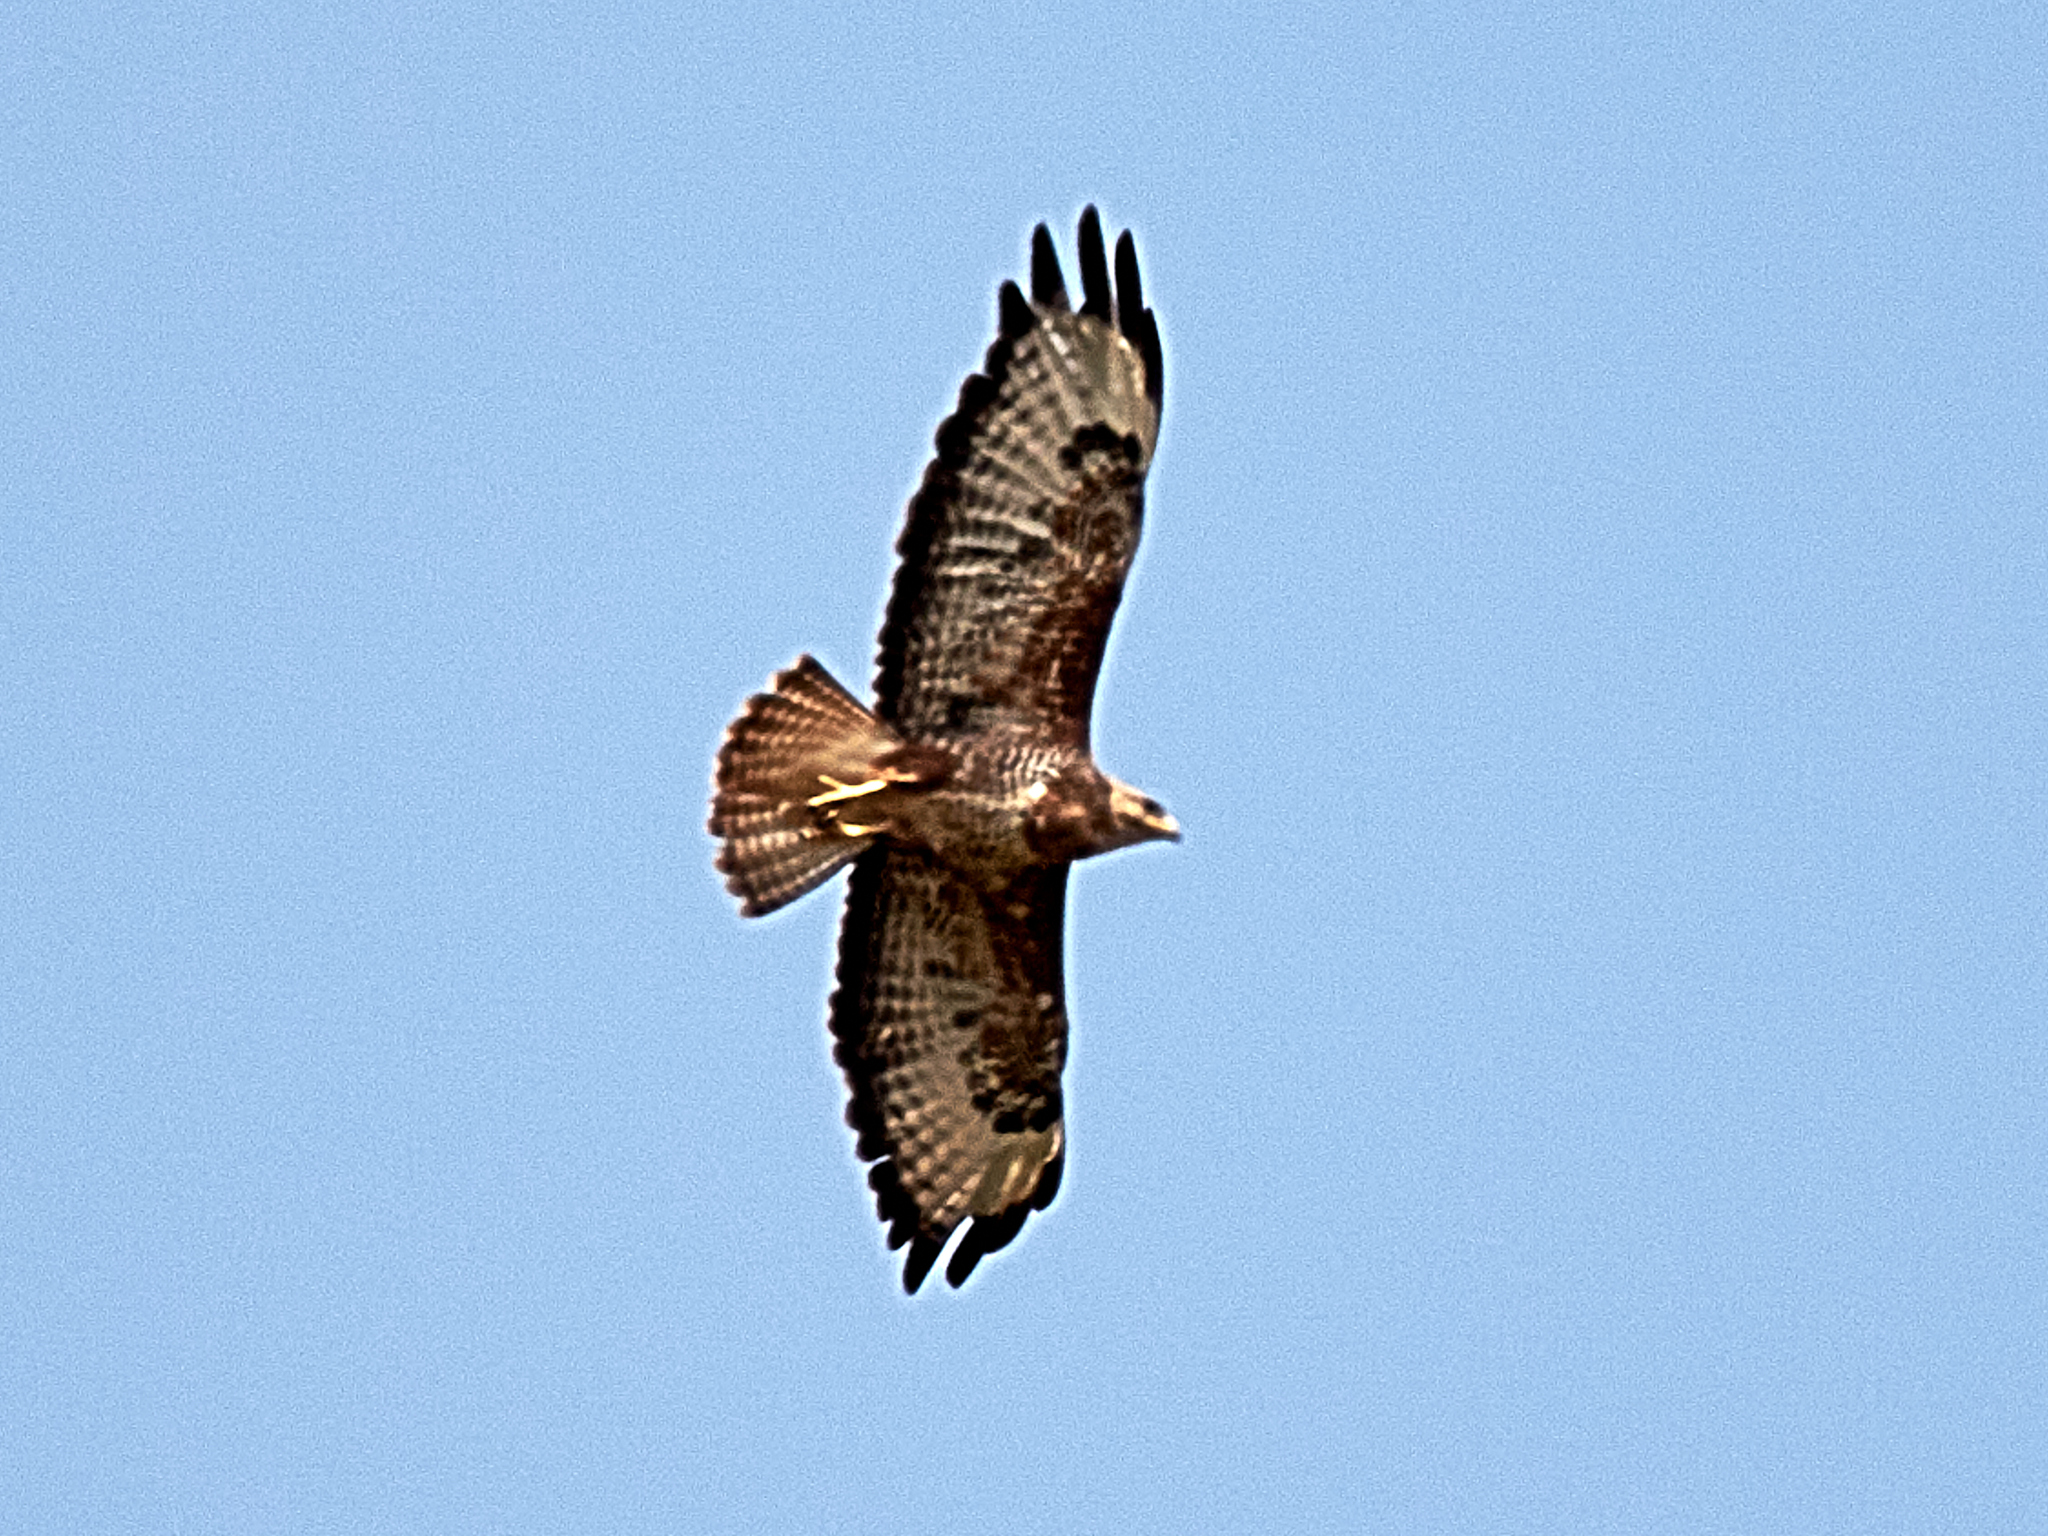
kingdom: Animalia
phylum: Chordata
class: Aves
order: Accipitriformes
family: Accipitridae
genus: Buteo
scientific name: Buteo buteo
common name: Common buzzard
